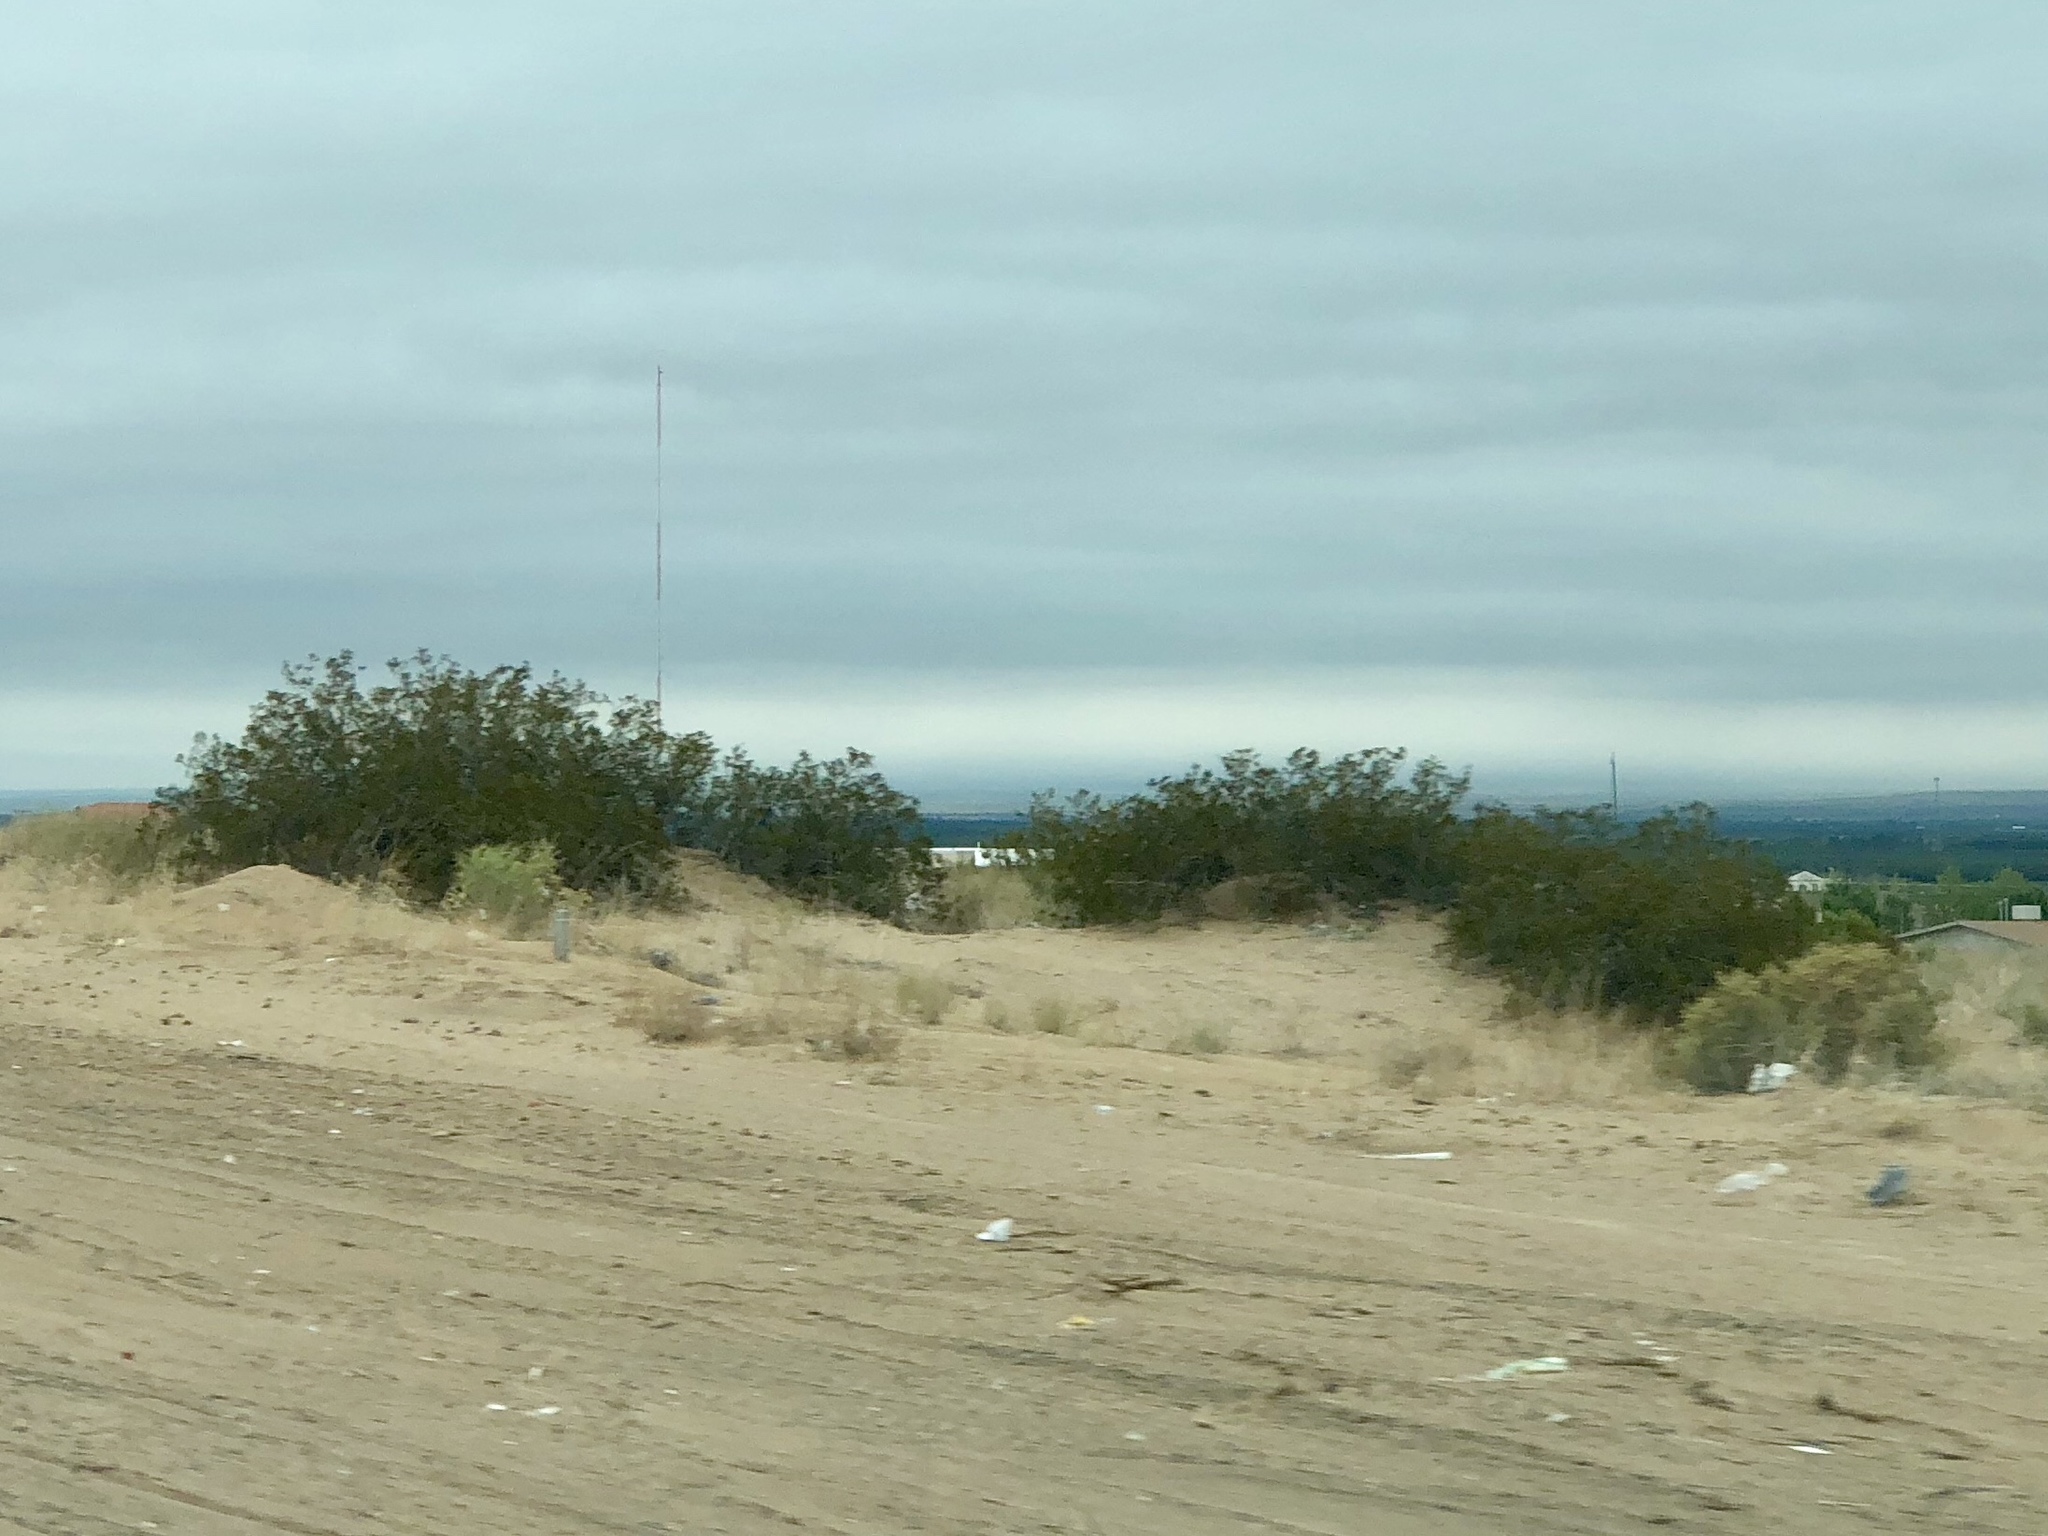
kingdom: Plantae
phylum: Tracheophyta
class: Magnoliopsida
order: Zygophyllales
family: Zygophyllaceae
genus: Larrea
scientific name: Larrea tridentata
